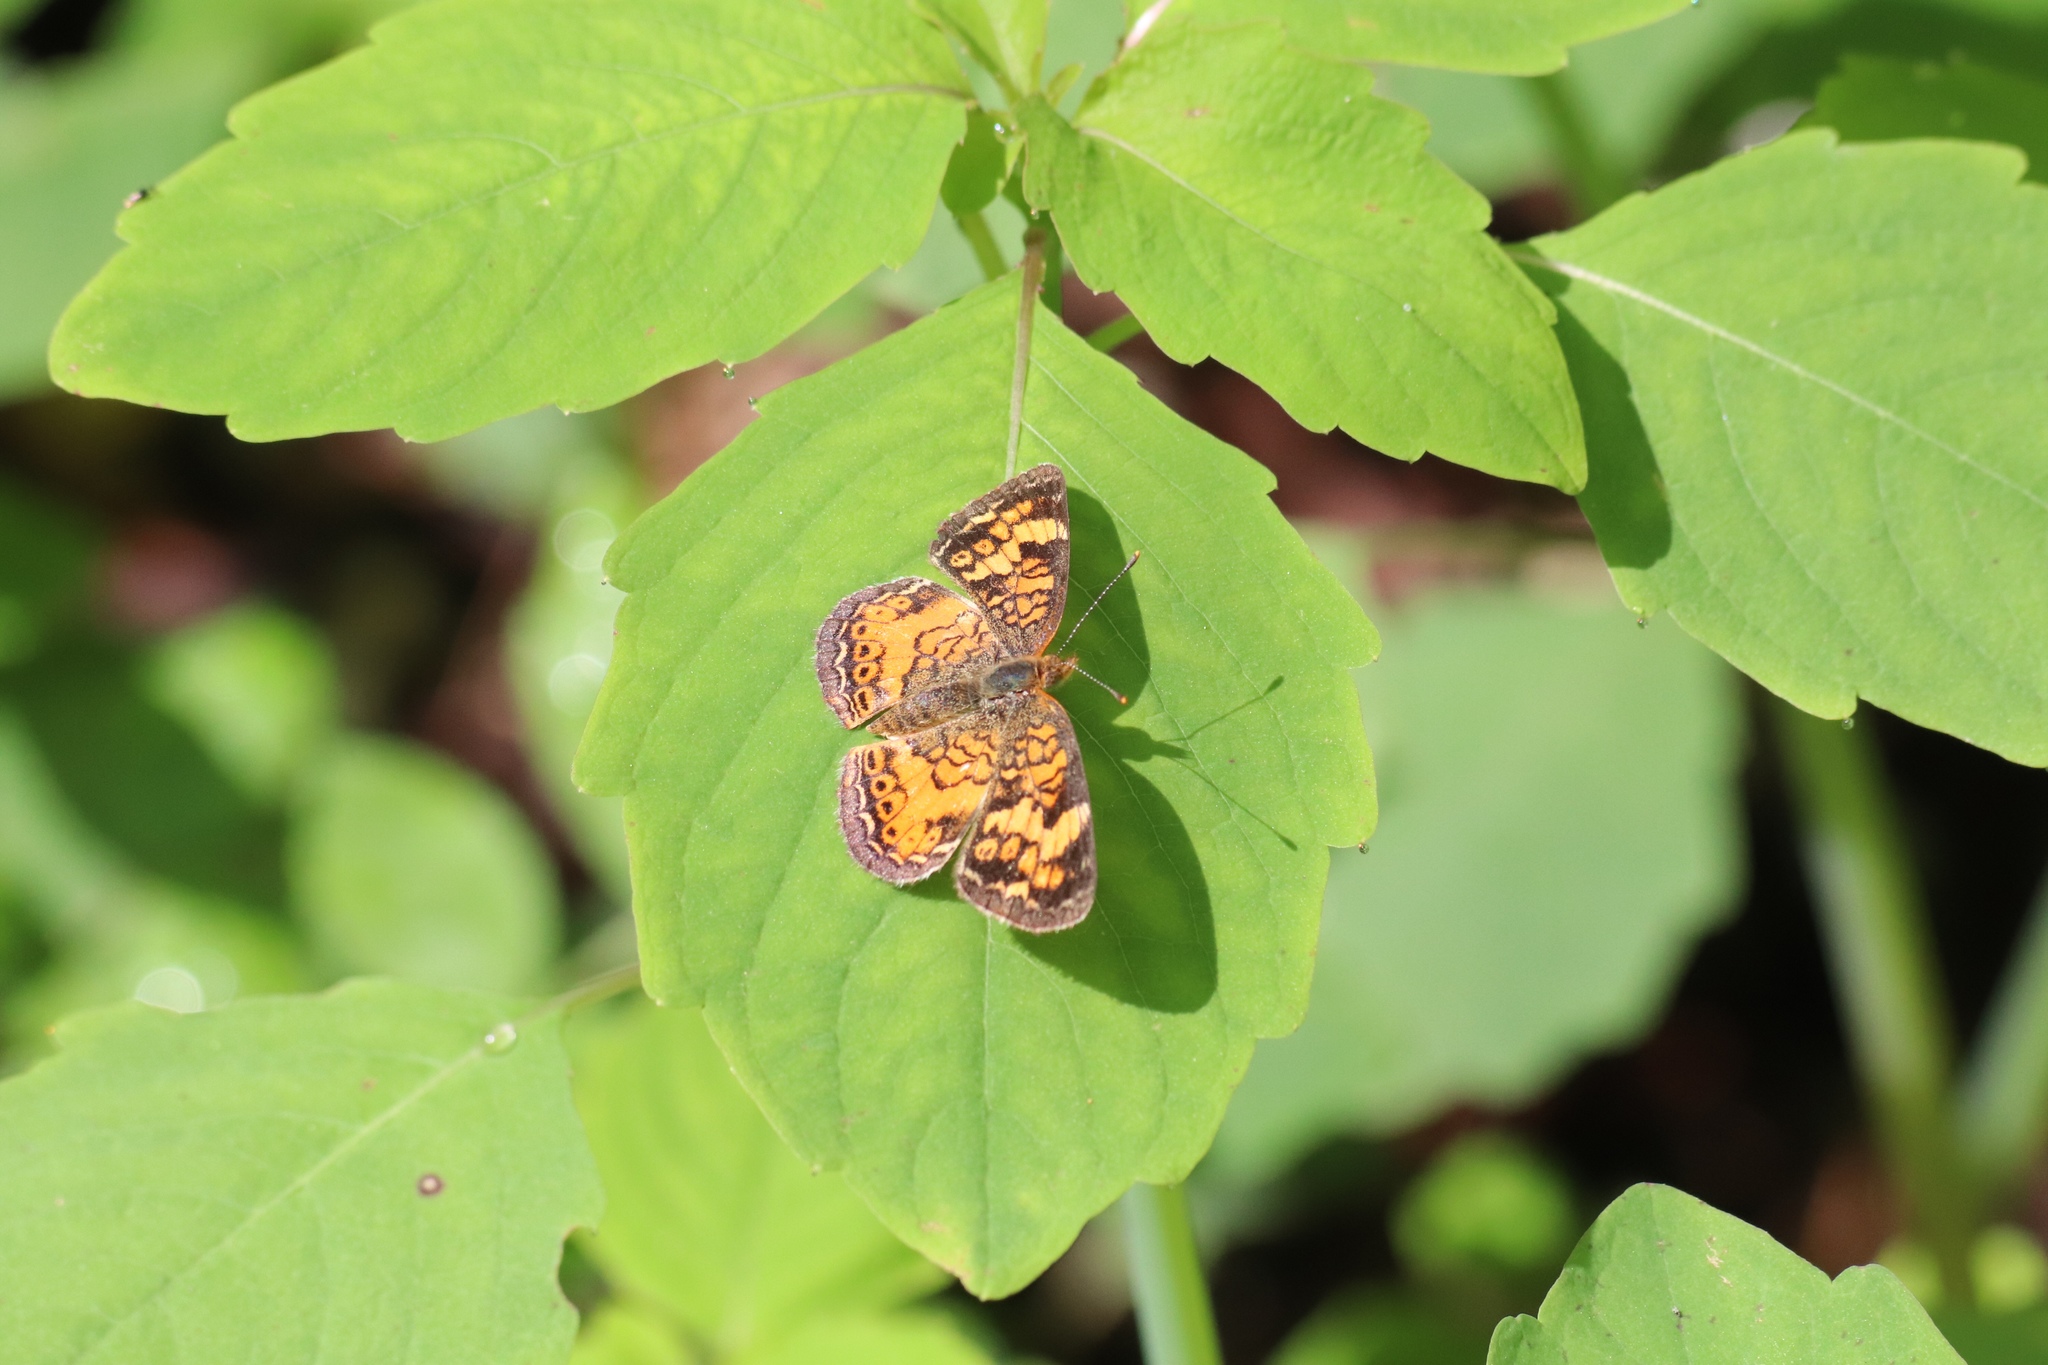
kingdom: Animalia
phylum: Arthropoda
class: Insecta
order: Lepidoptera
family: Nymphalidae
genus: Phyciodes
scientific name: Phyciodes tharos
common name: Pearl crescent
